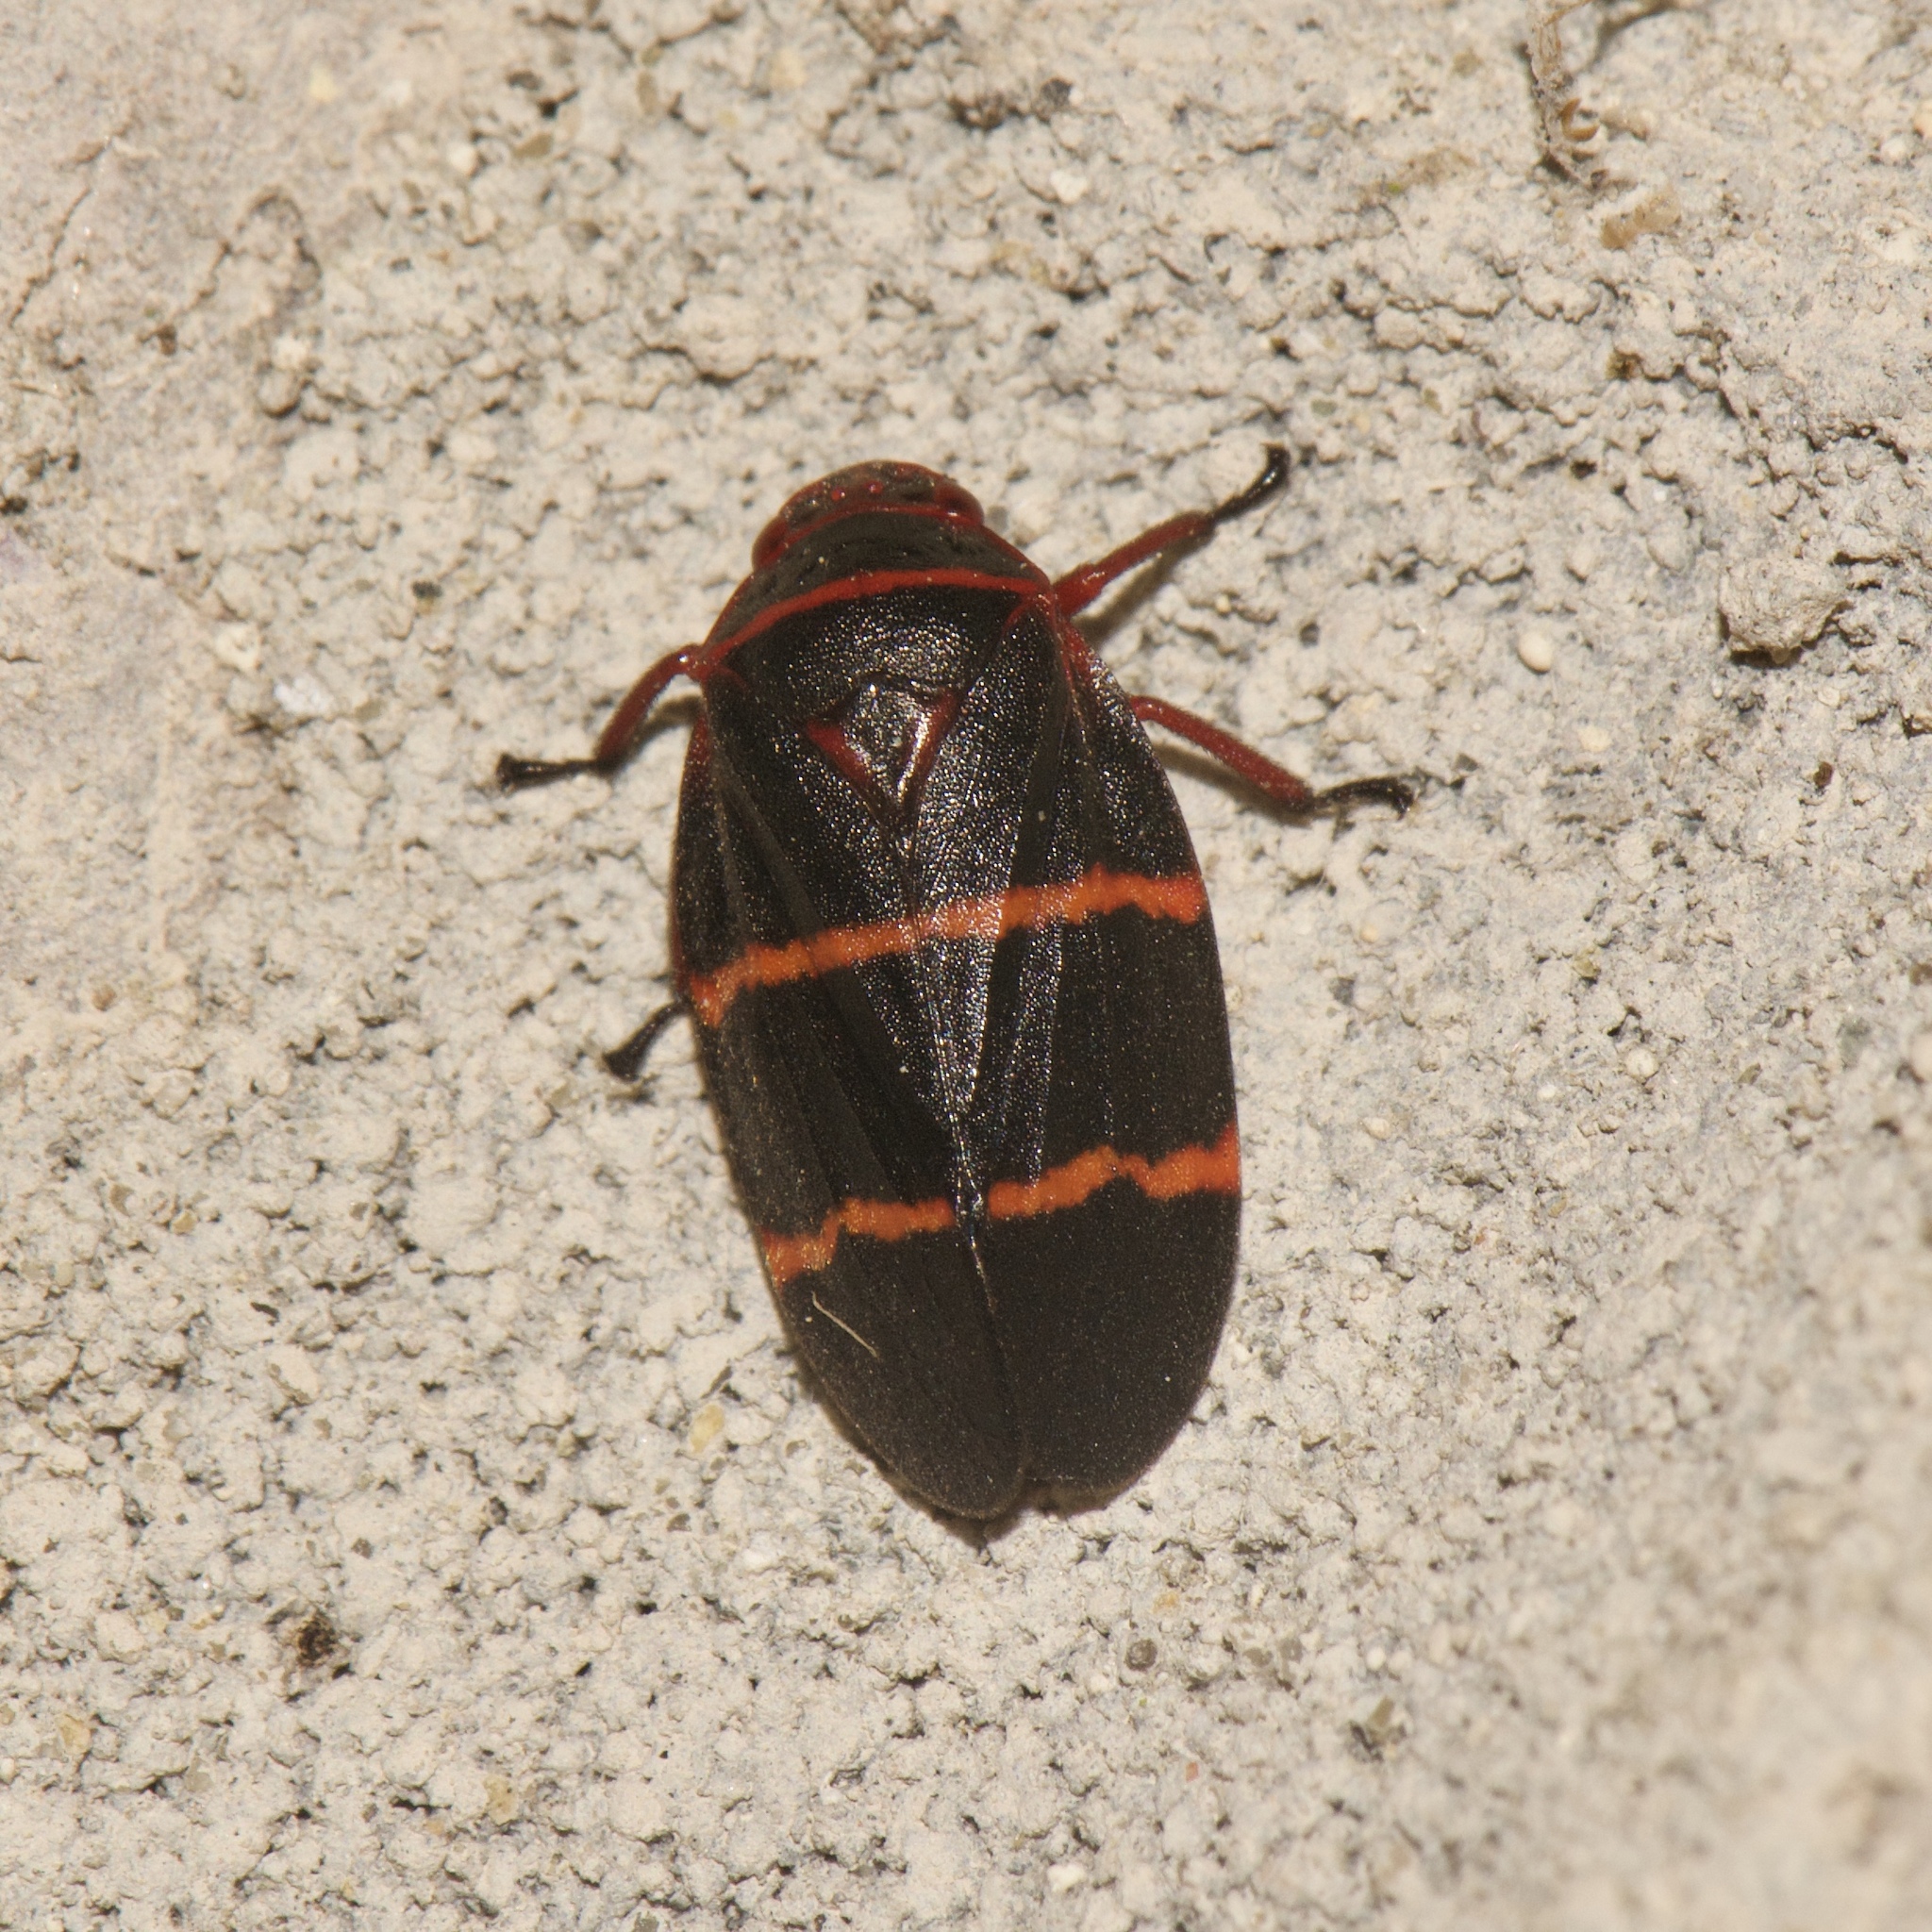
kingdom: Animalia
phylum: Arthropoda
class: Insecta
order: Hemiptera
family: Cercopidae
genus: Prosapia
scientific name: Prosapia bicincta
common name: Twolined spittlebug
